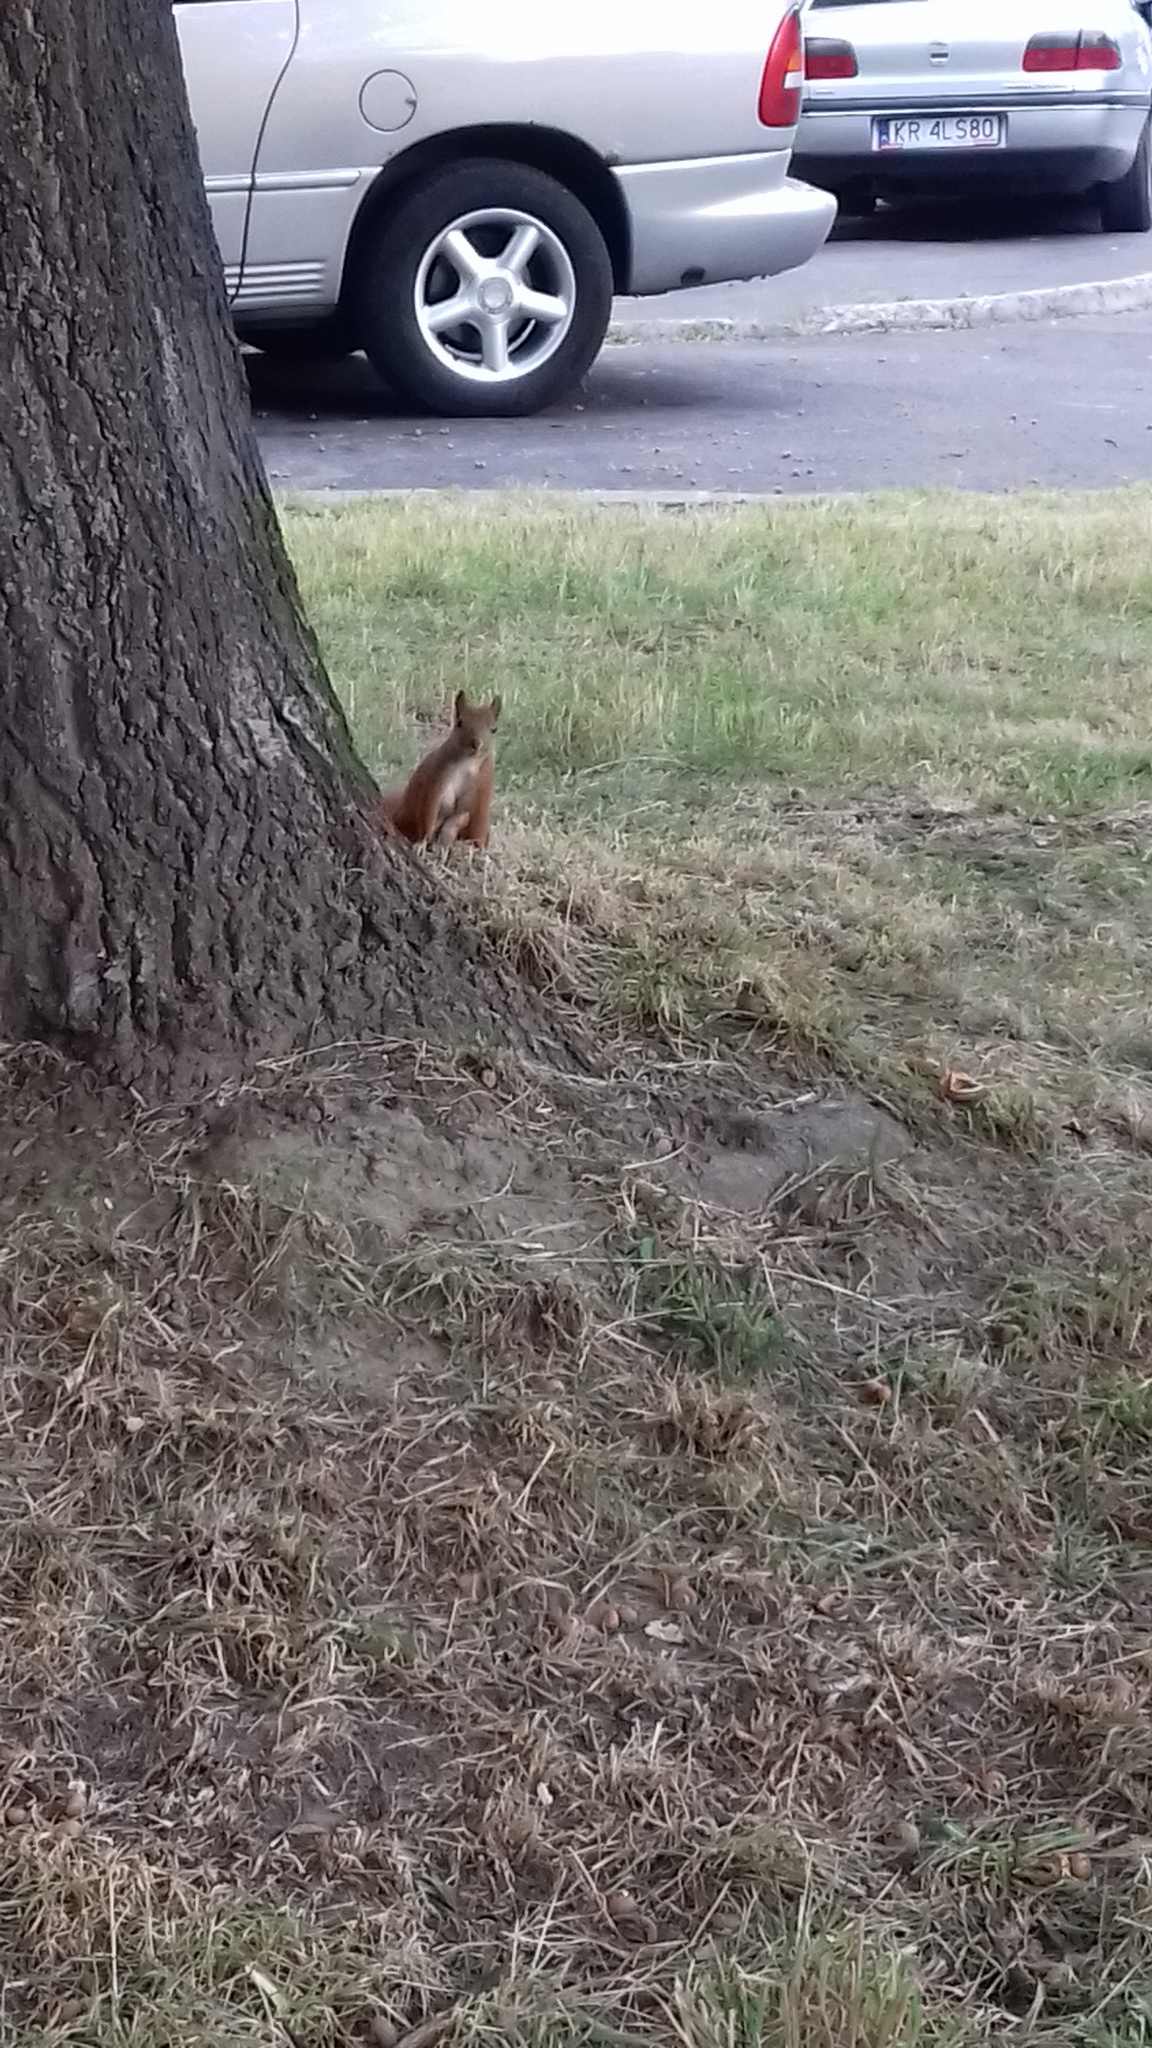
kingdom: Animalia
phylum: Chordata
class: Mammalia
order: Rodentia
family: Sciuridae
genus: Sciurus
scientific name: Sciurus vulgaris
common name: Eurasian red squirrel
